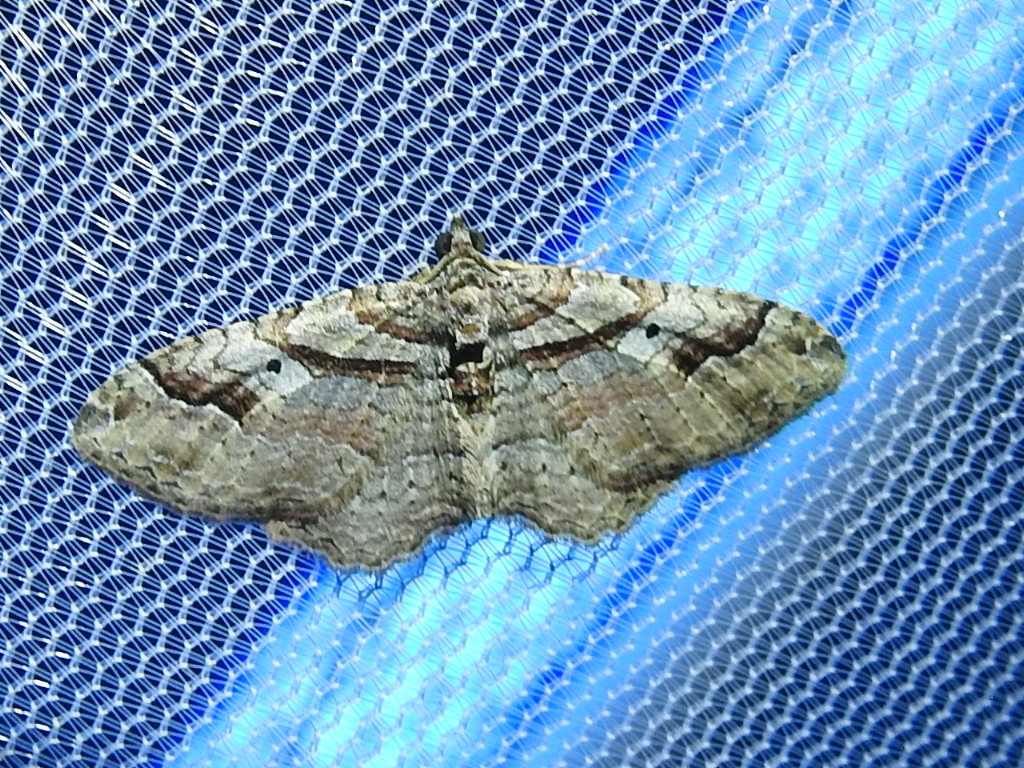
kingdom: Animalia
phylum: Arthropoda
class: Insecta
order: Lepidoptera
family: Geometridae
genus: Costaconvexa
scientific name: Costaconvexa centrostrigaria
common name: Bent-line carpet
